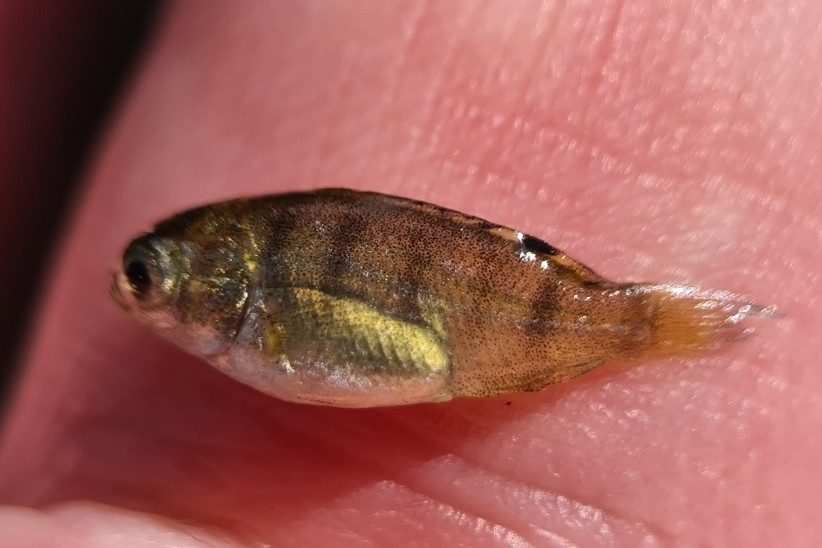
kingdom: Animalia
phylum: Chordata
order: Perciformes
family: Cichlidae
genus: Oreochromis
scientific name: Oreochromis mossambicus
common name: Mozambique tilapia
